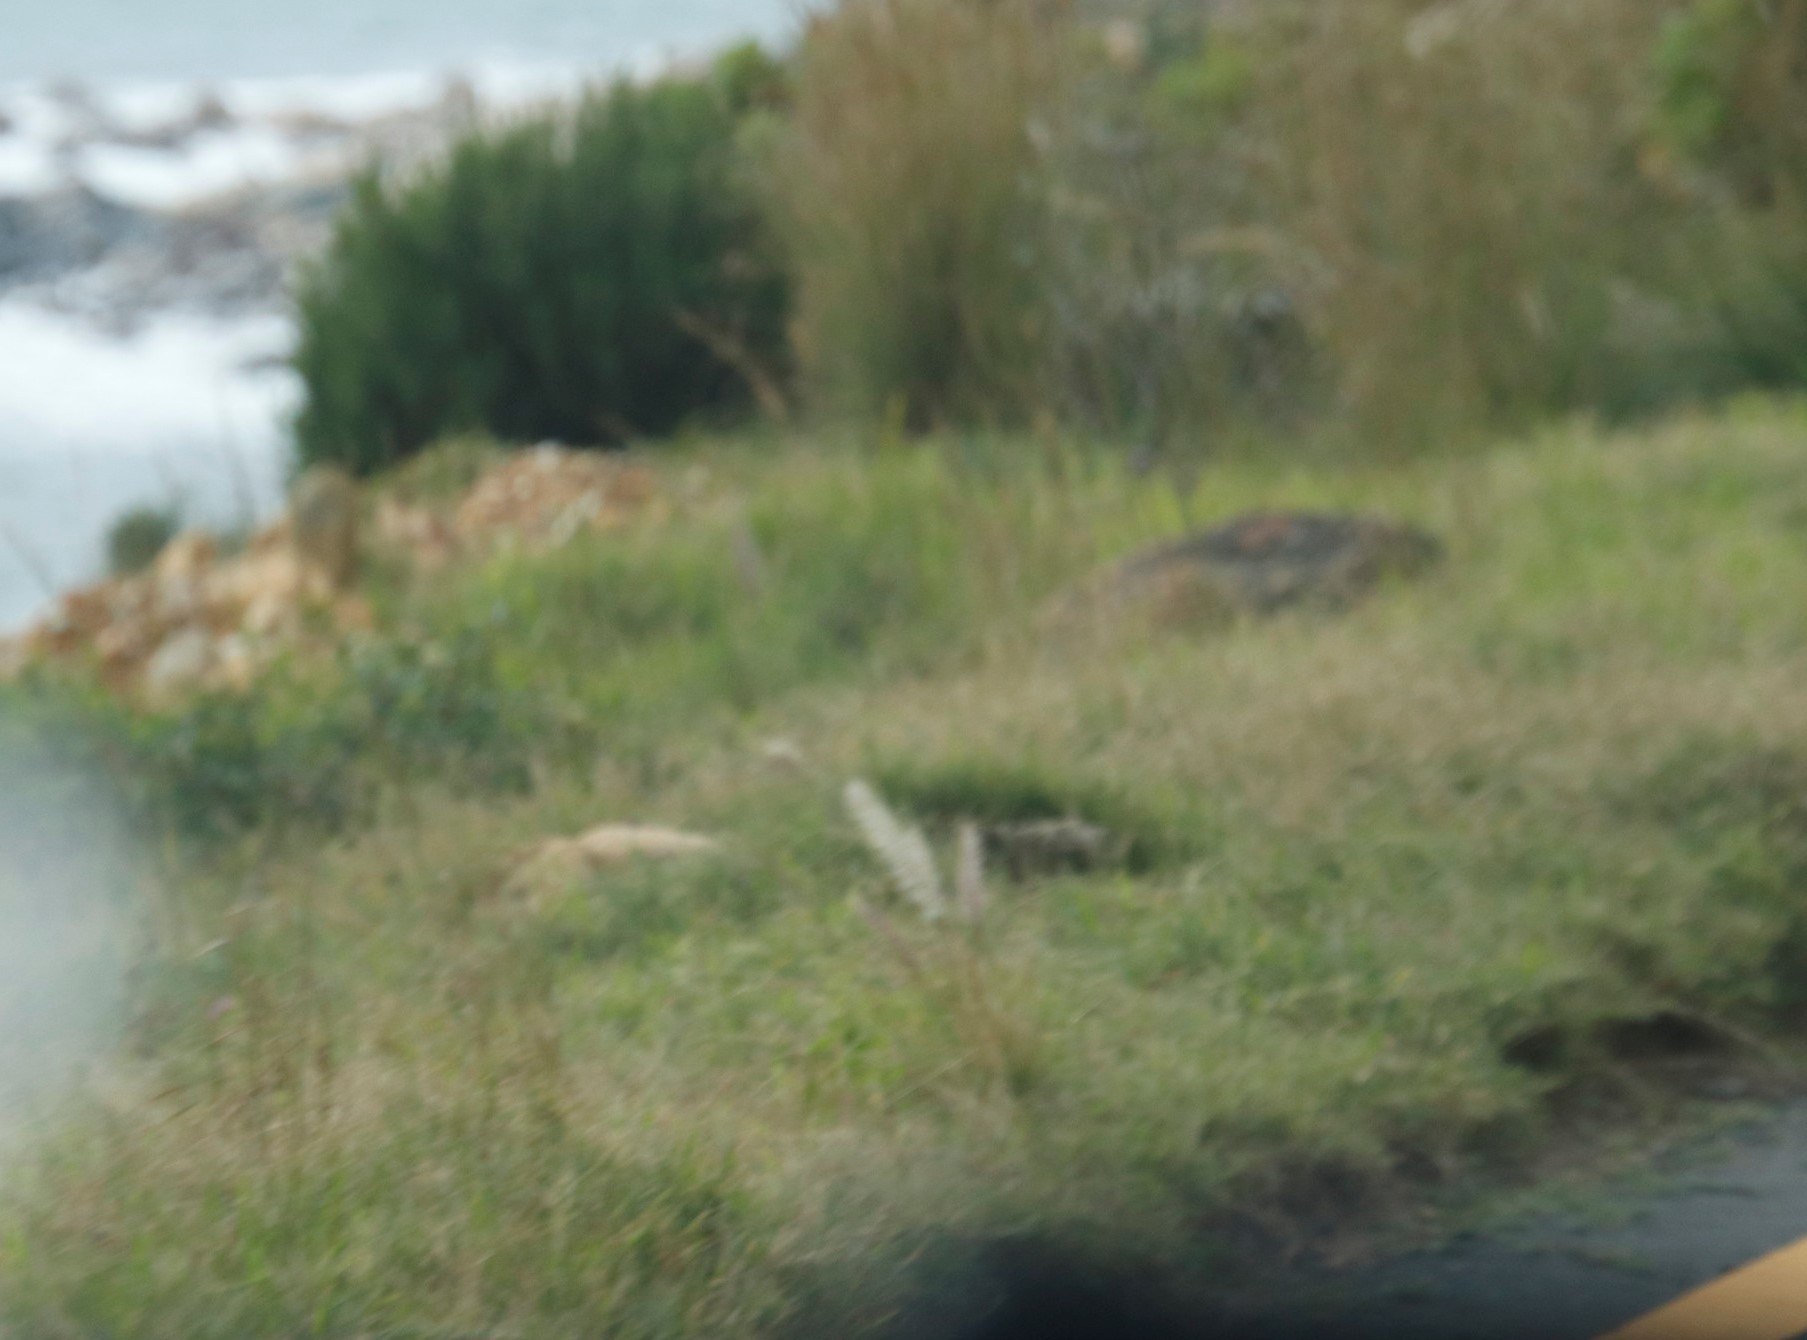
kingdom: Plantae
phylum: Tracheophyta
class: Liliopsida
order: Poales
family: Poaceae
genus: Cenchrus
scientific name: Cenchrus setaceus
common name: Crimson fountaingrass
